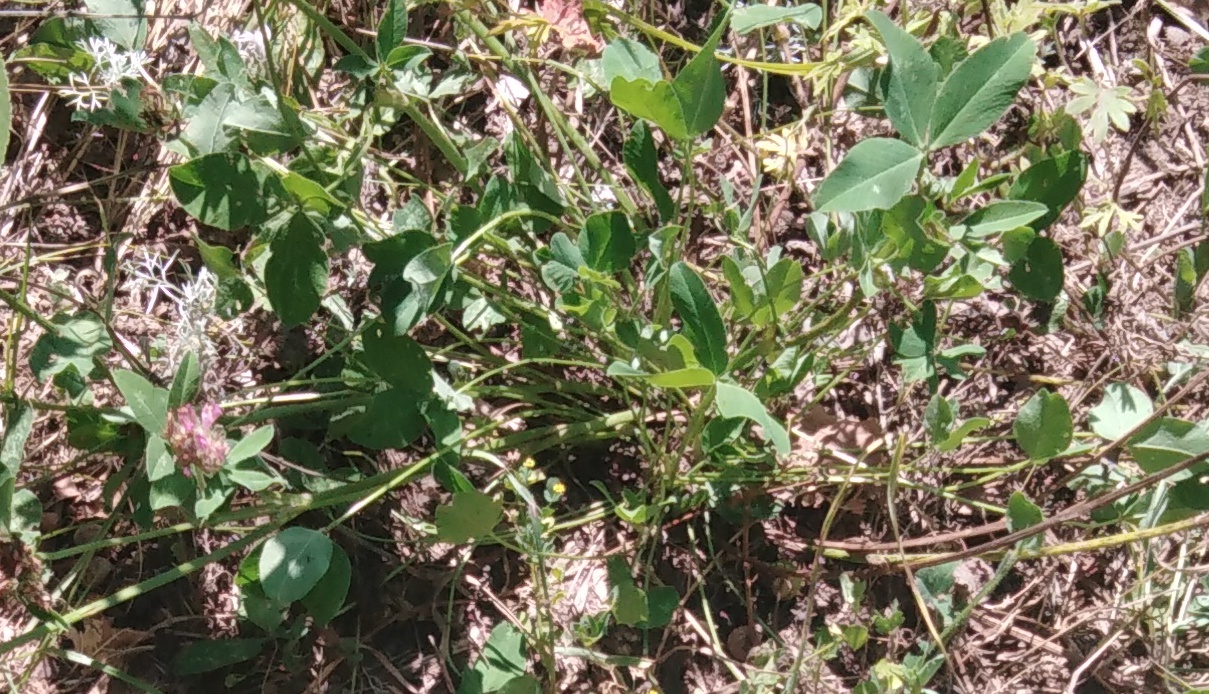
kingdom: Plantae
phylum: Tracheophyta
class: Magnoliopsida
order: Fabales
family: Fabaceae
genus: Trifolium
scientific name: Trifolium pratense
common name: Red clover
